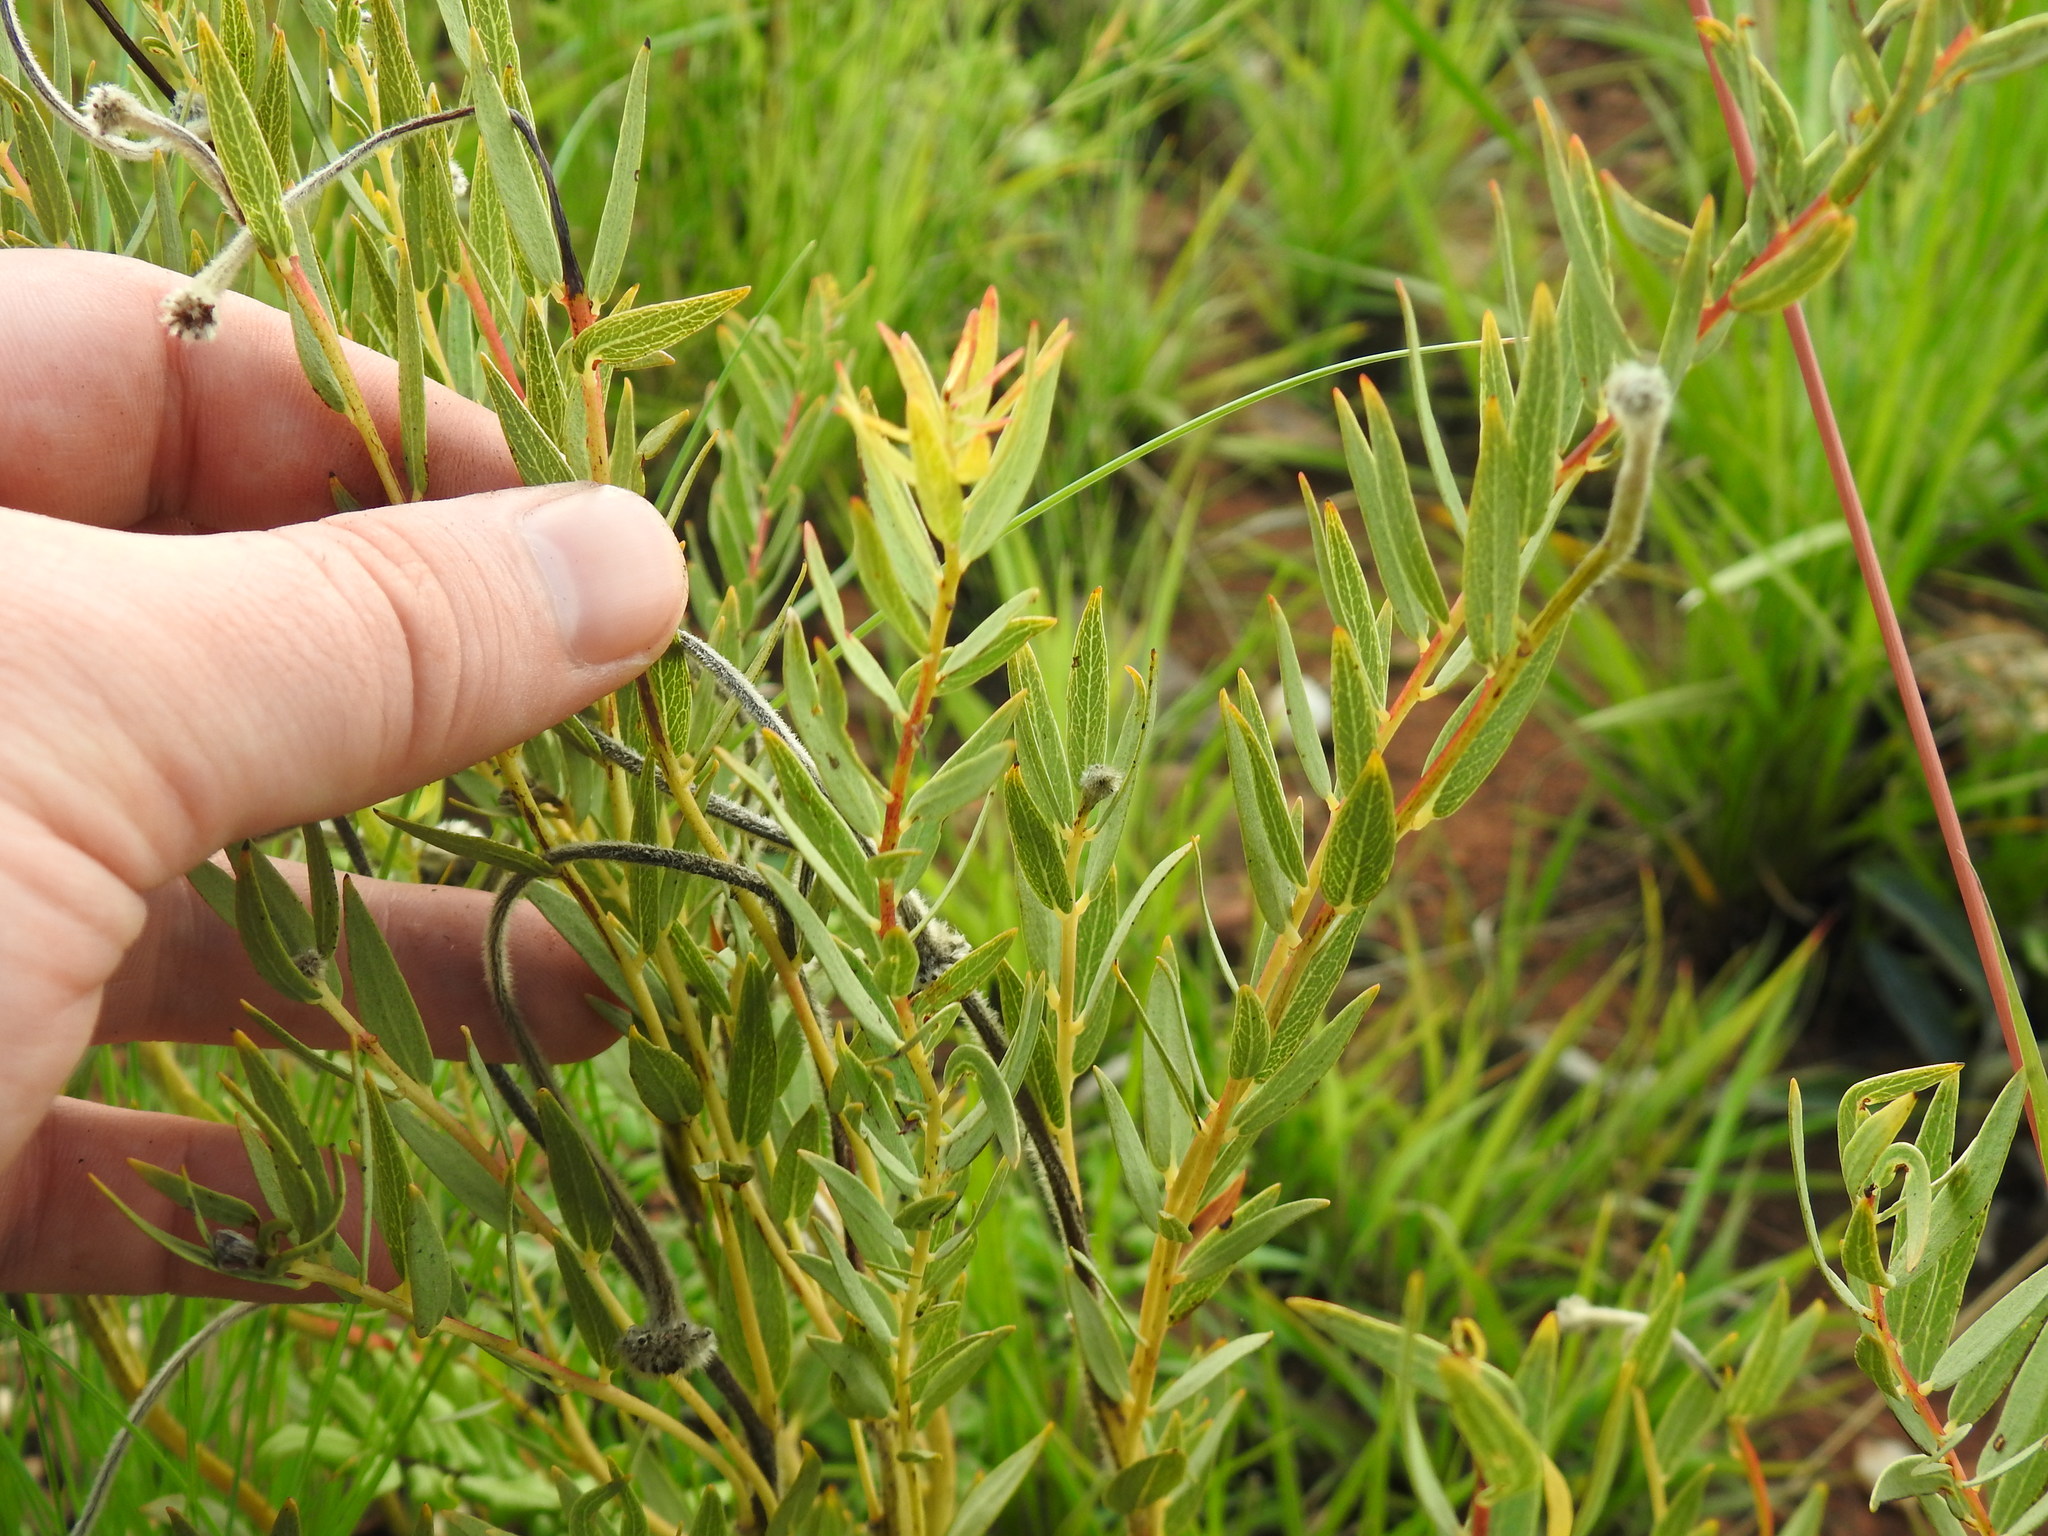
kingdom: Plantae
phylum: Tracheophyta
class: Magnoliopsida
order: Malvales
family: Thymelaeaceae
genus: Gnidia
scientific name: Gnidia kraussiana
